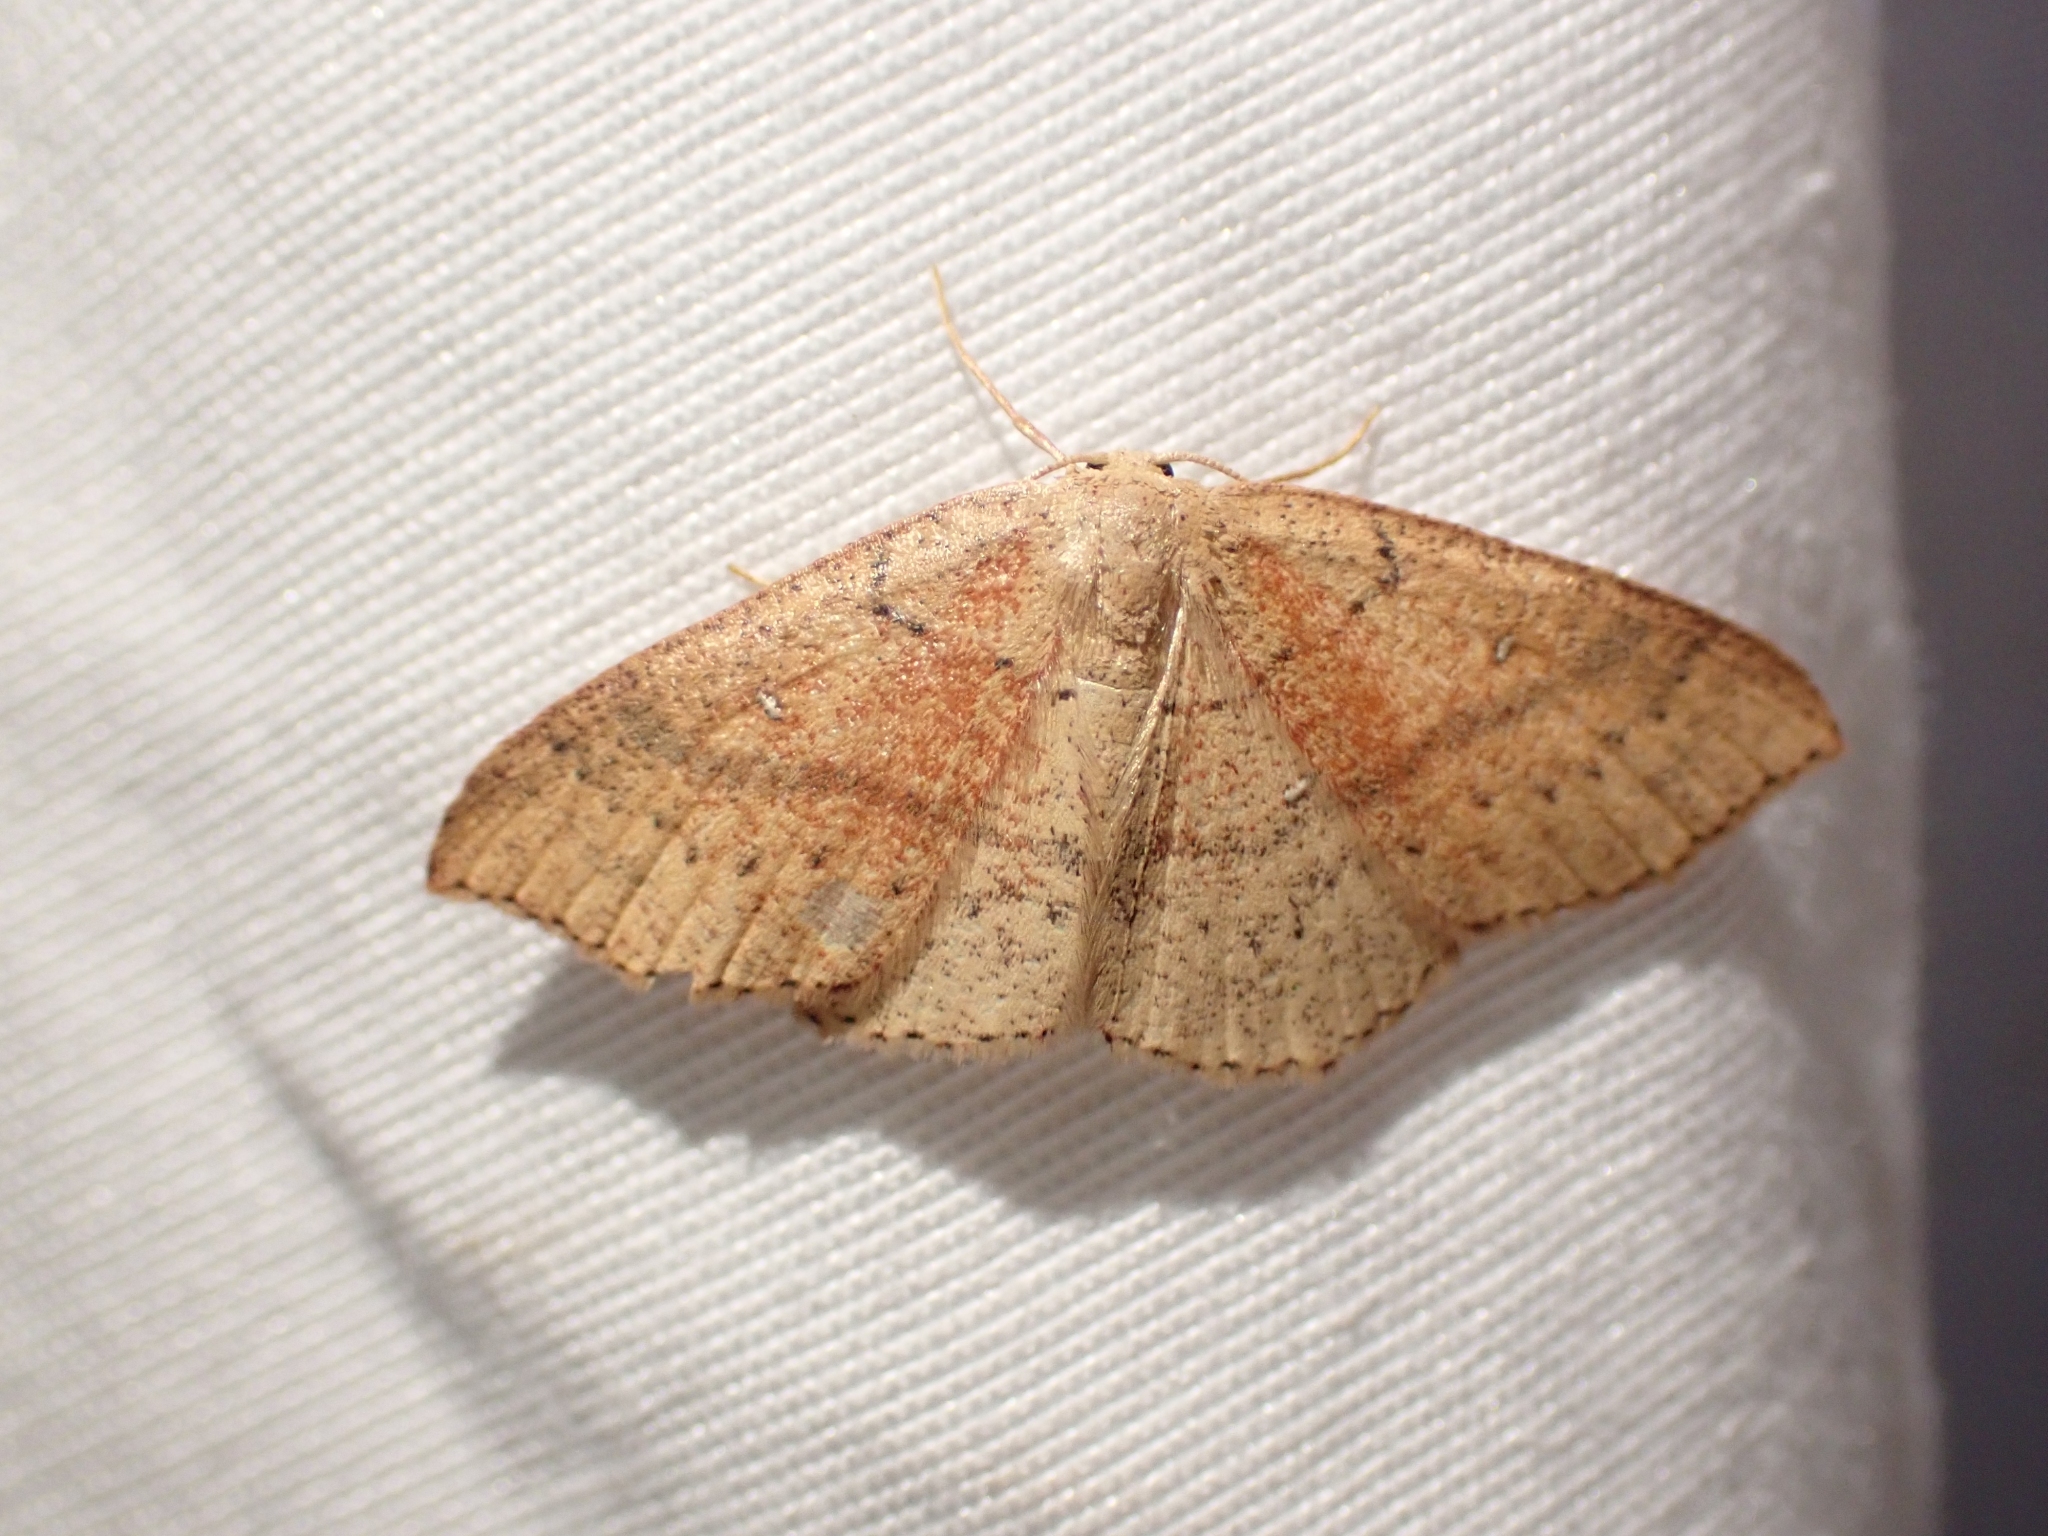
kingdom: Animalia
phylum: Arthropoda
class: Insecta
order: Lepidoptera
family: Geometridae
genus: Cyclophora
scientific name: Cyclophora dataria
